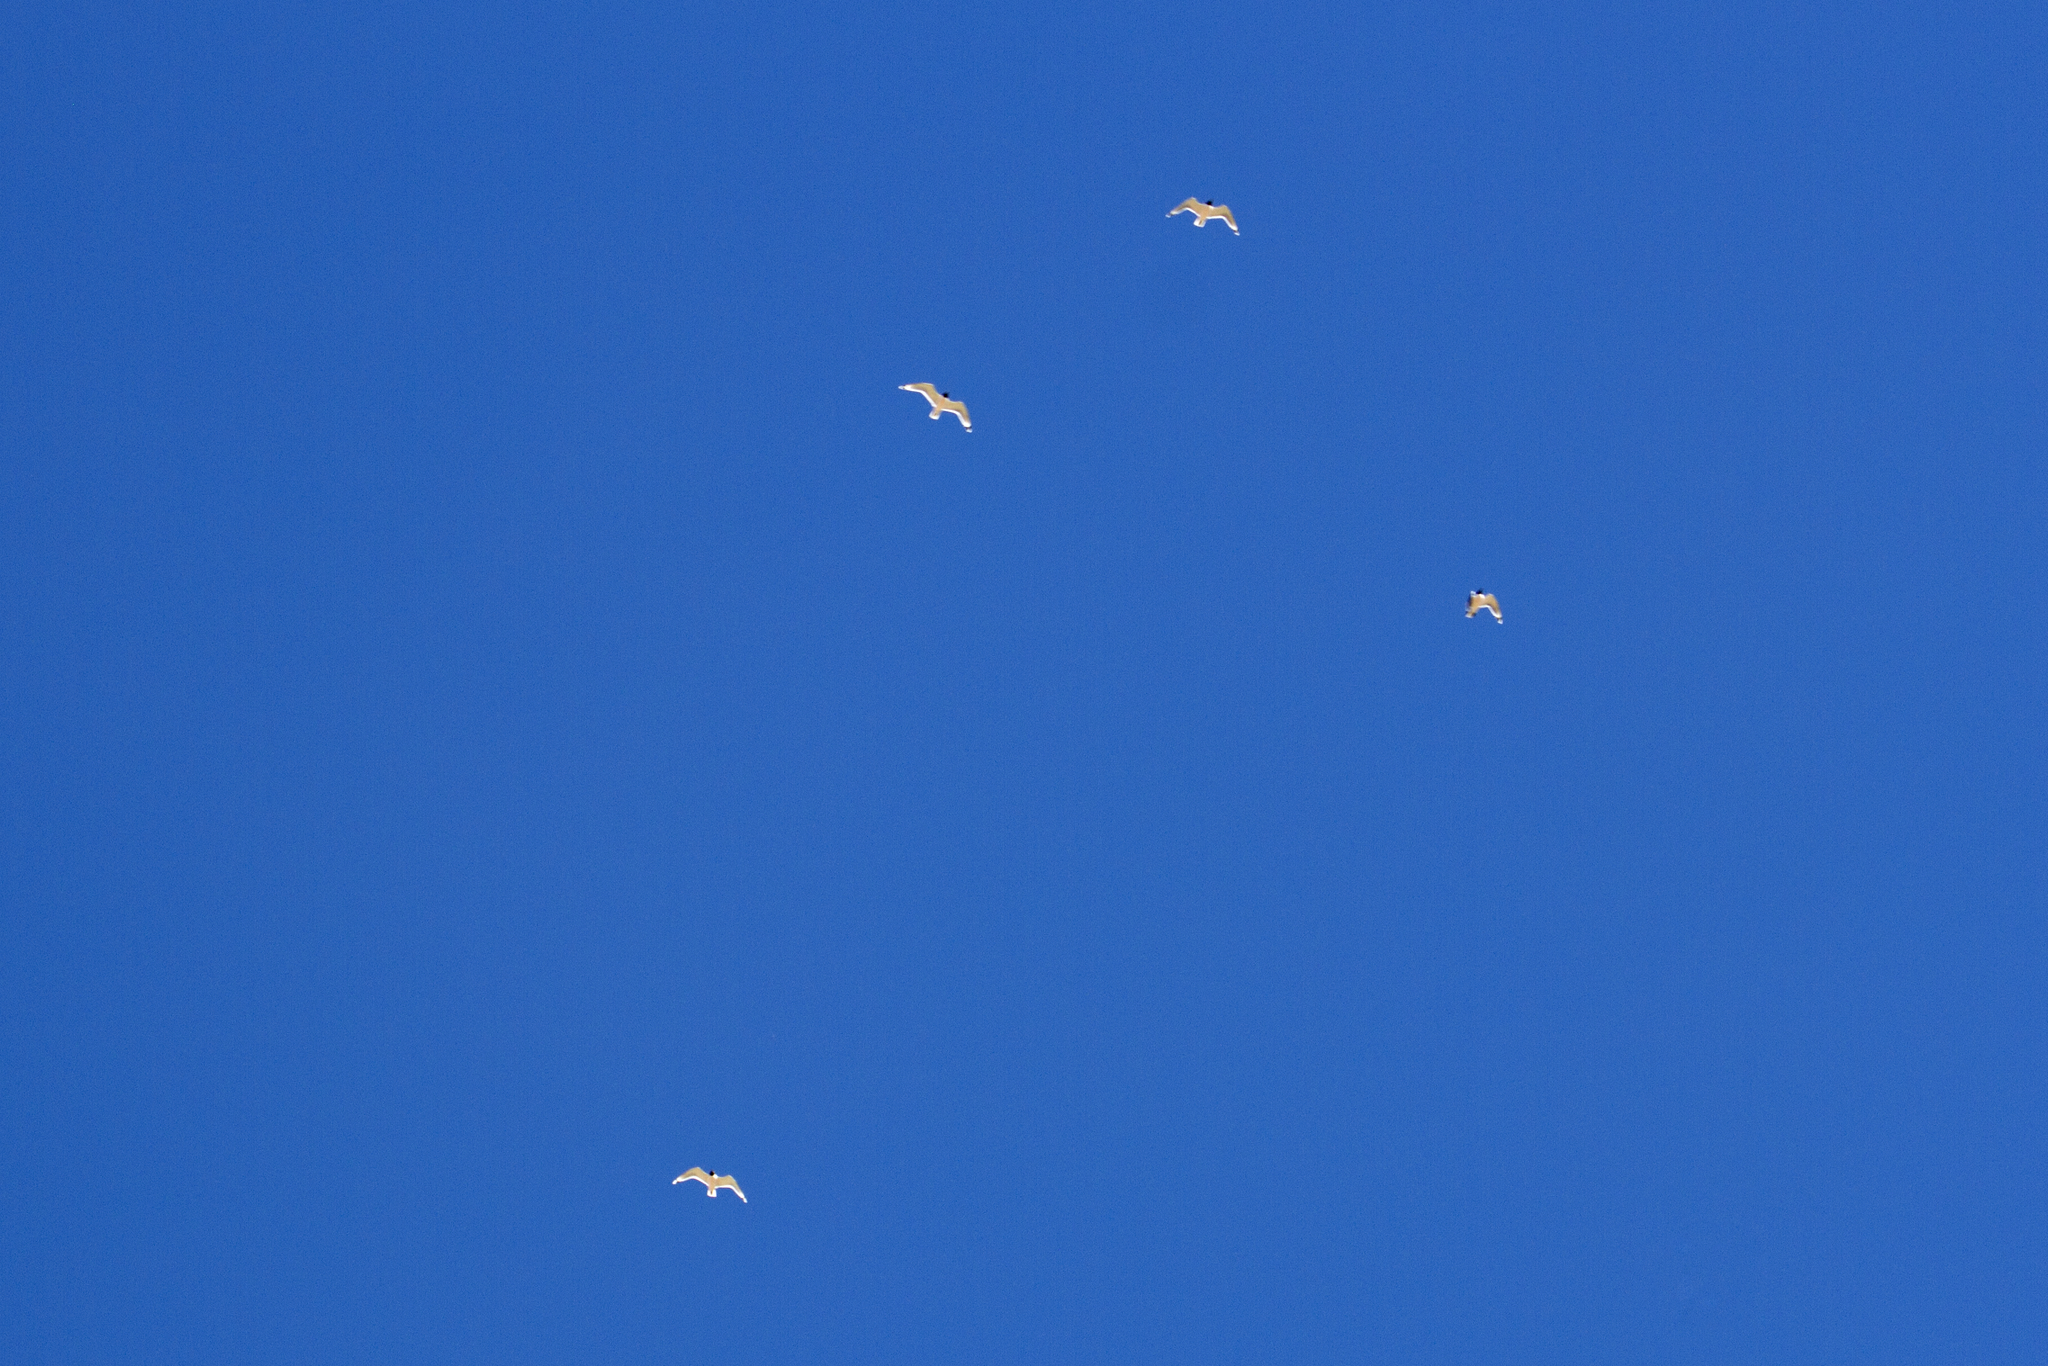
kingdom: Animalia
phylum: Chordata
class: Aves
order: Charadriiformes
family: Laridae
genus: Leucophaeus
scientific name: Leucophaeus pipixcan
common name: Franklin's gull
